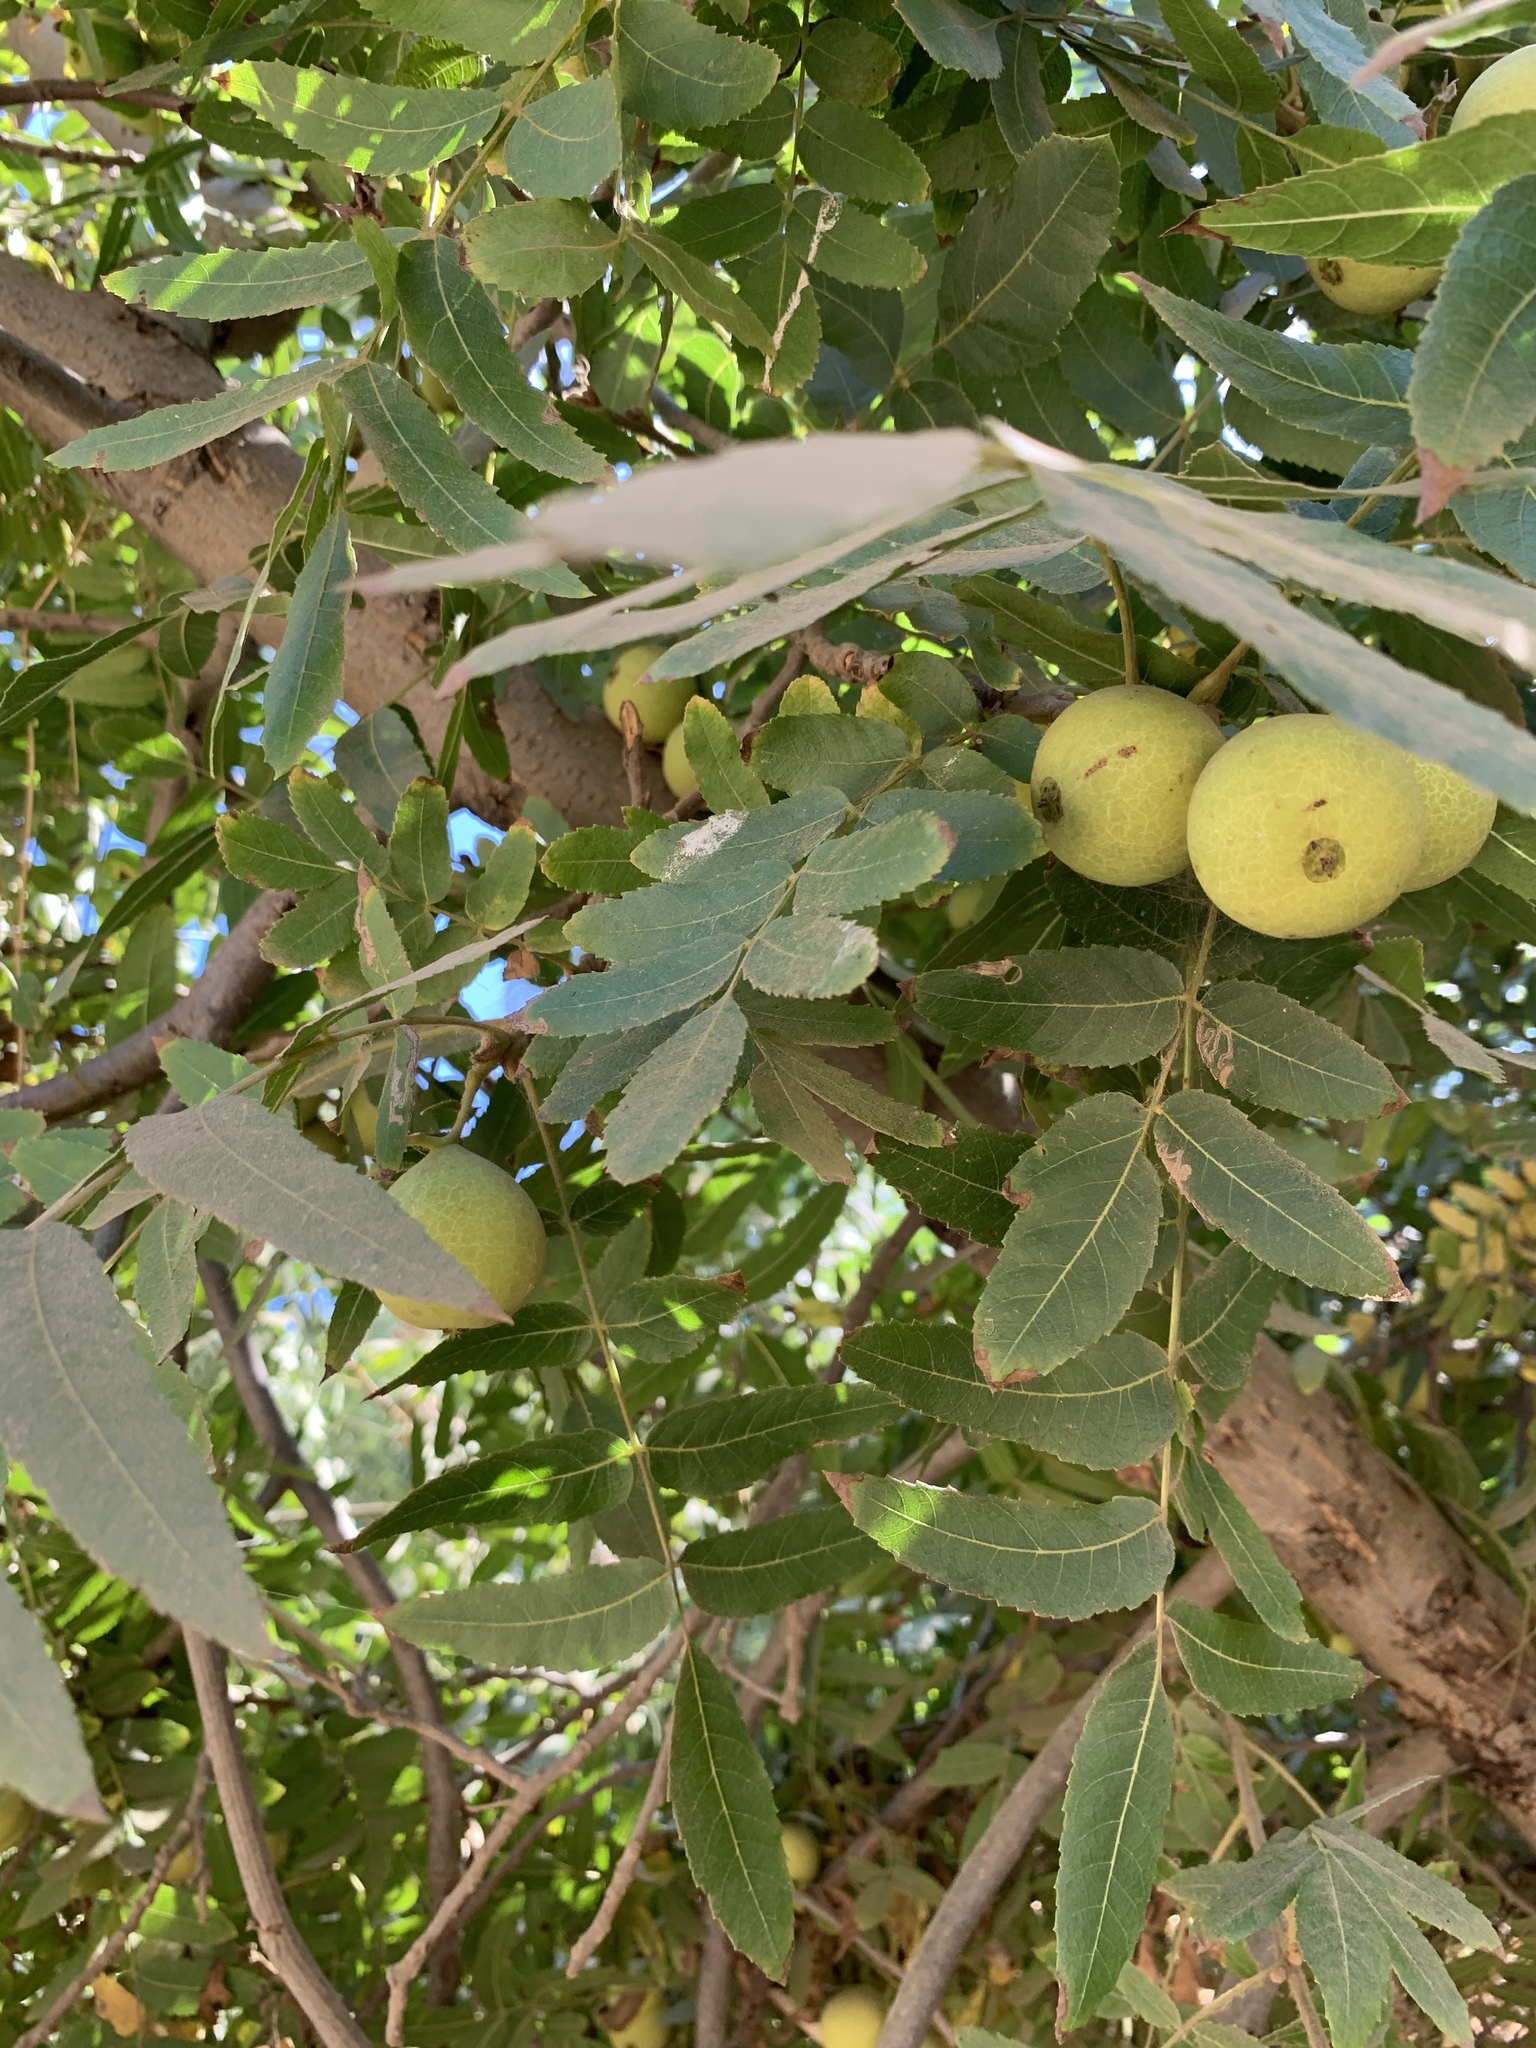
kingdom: Plantae
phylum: Tracheophyta
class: Magnoliopsida
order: Fagales
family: Juglandaceae
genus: Juglans
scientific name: Juglans californica
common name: Southern california black walnut
